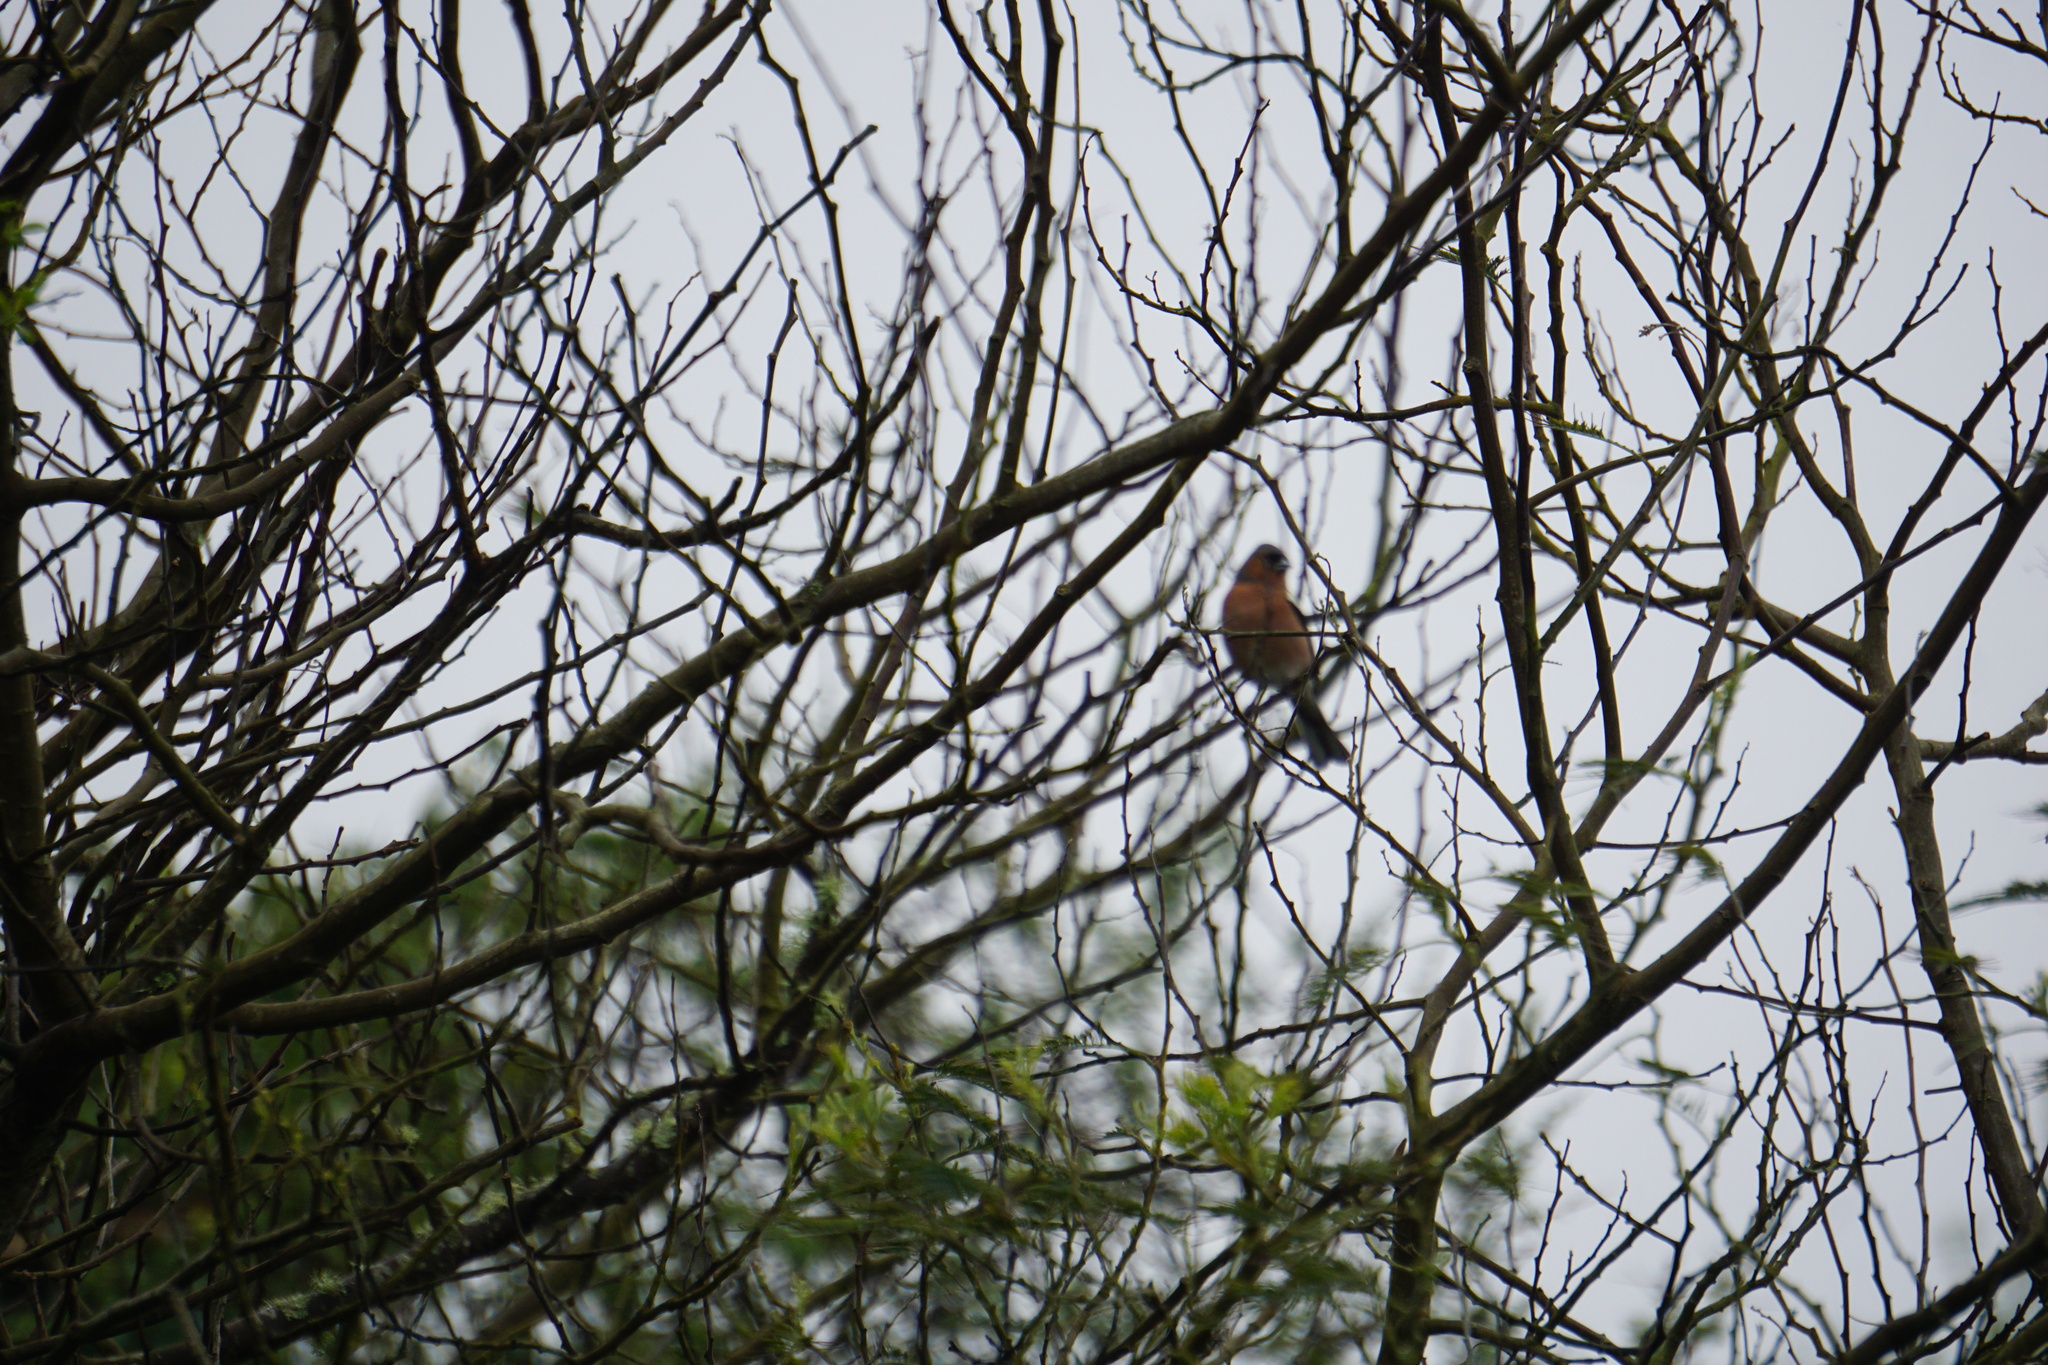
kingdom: Animalia
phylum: Chordata
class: Aves
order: Passeriformes
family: Fringillidae
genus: Fringilla
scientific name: Fringilla coelebs
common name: Common chaffinch
